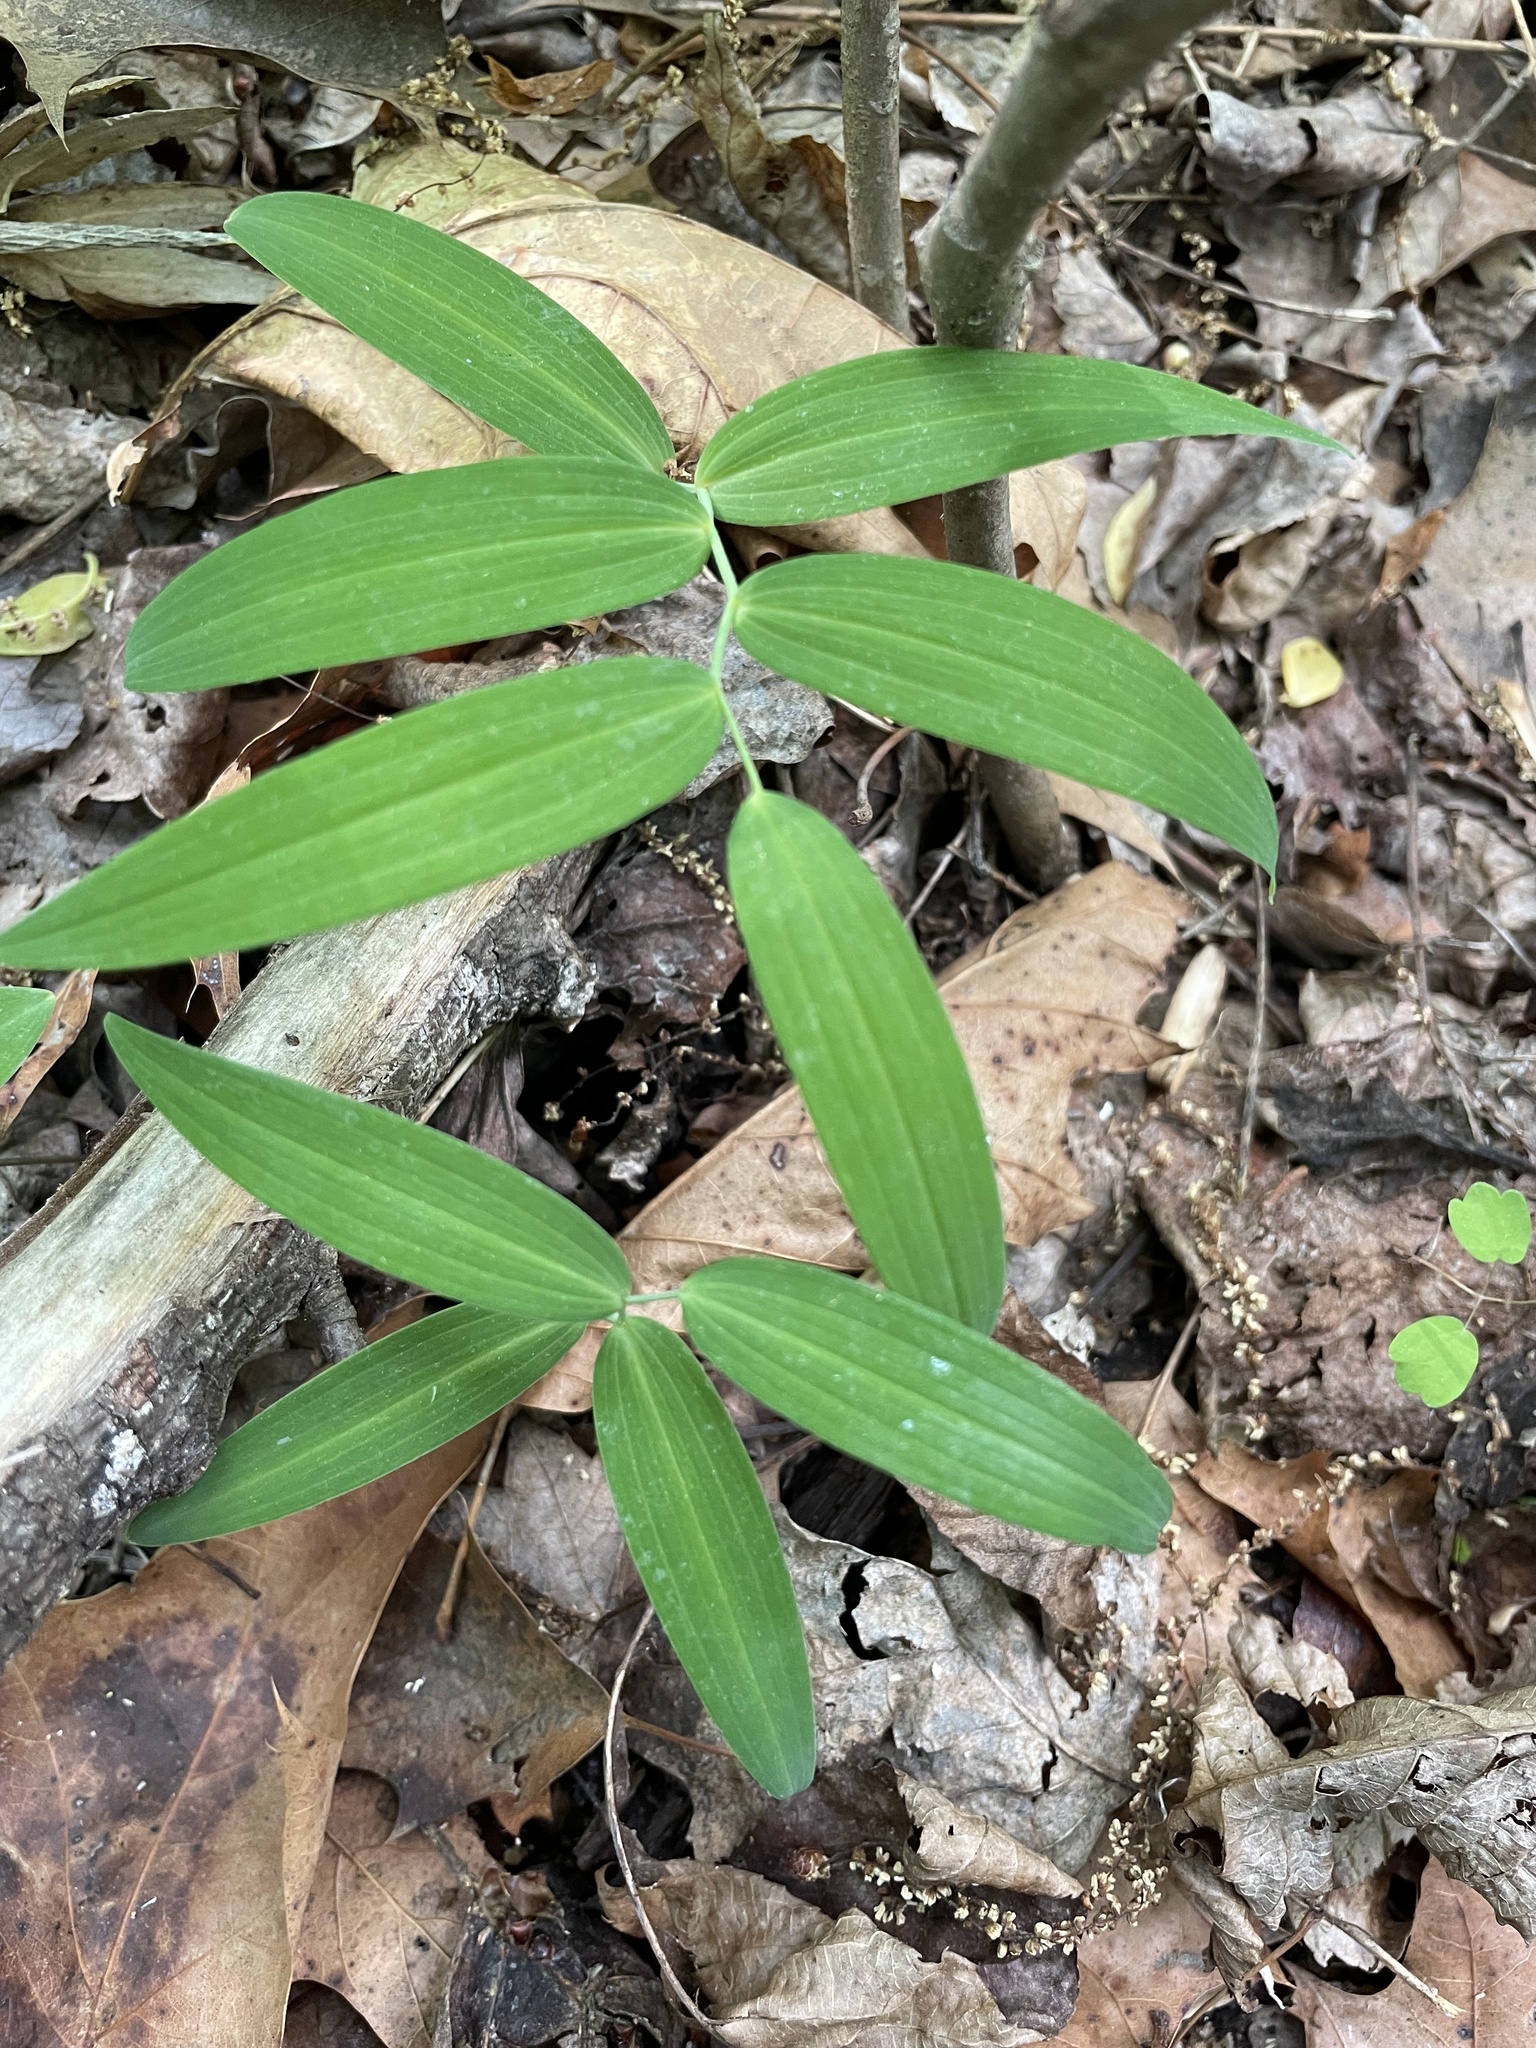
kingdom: Plantae
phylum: Tracheophyta
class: Liliopsida
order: Asparagales
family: Asparagaceae
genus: Polygonatum
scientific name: Polygonatum biflorum
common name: American solomon's-seal
